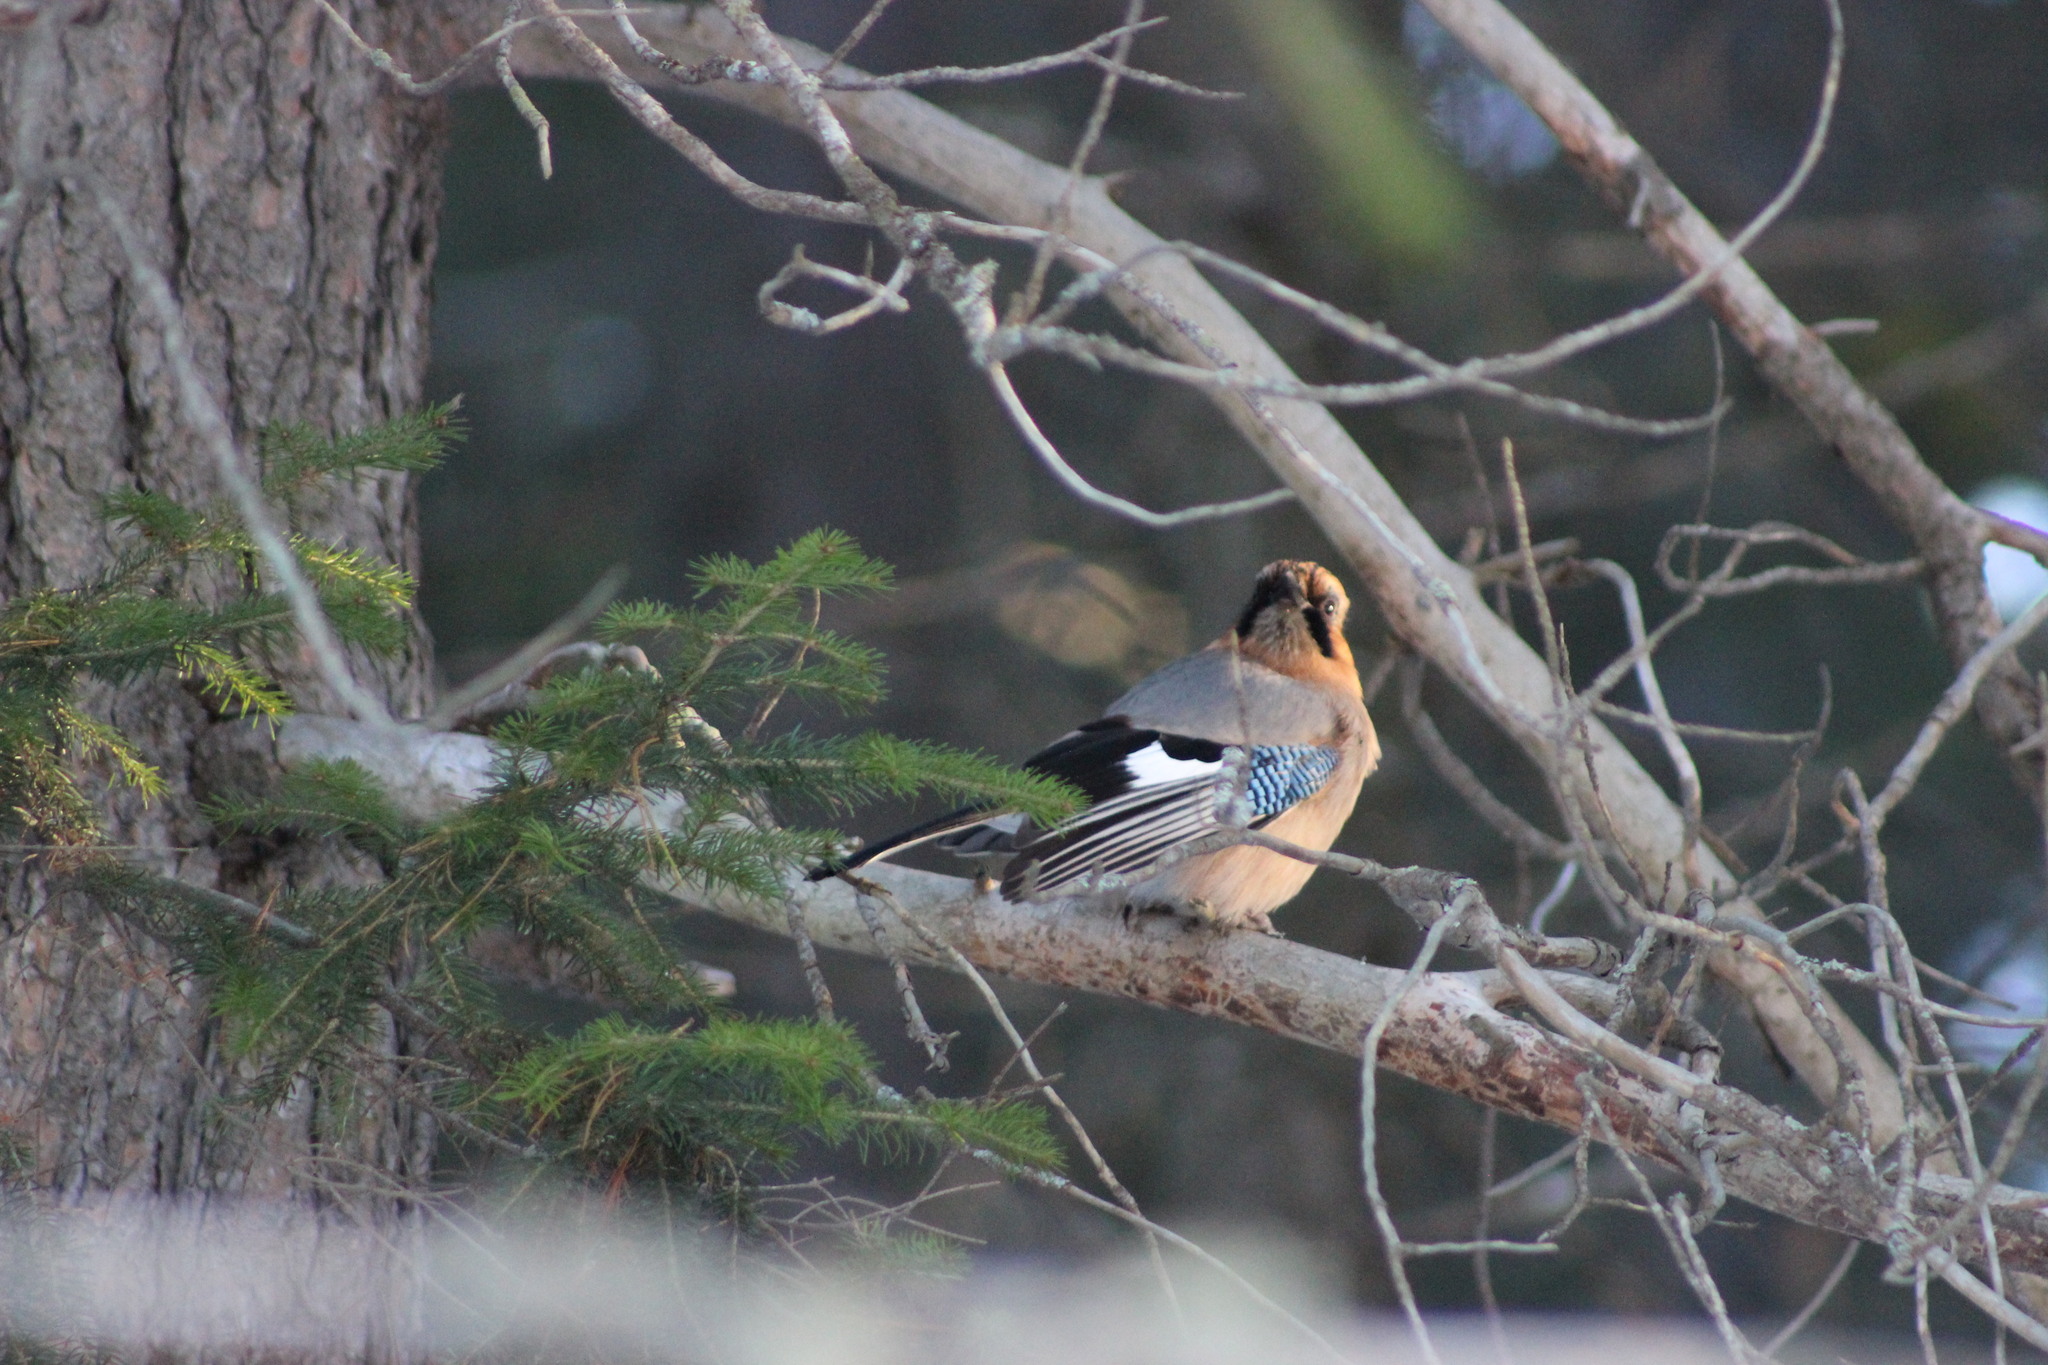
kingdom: Animalia
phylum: Chordata
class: Aves
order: Passeriformes
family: Corvidae
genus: Garrulus
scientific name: Garrulus glandarius
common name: Eurasian jay
